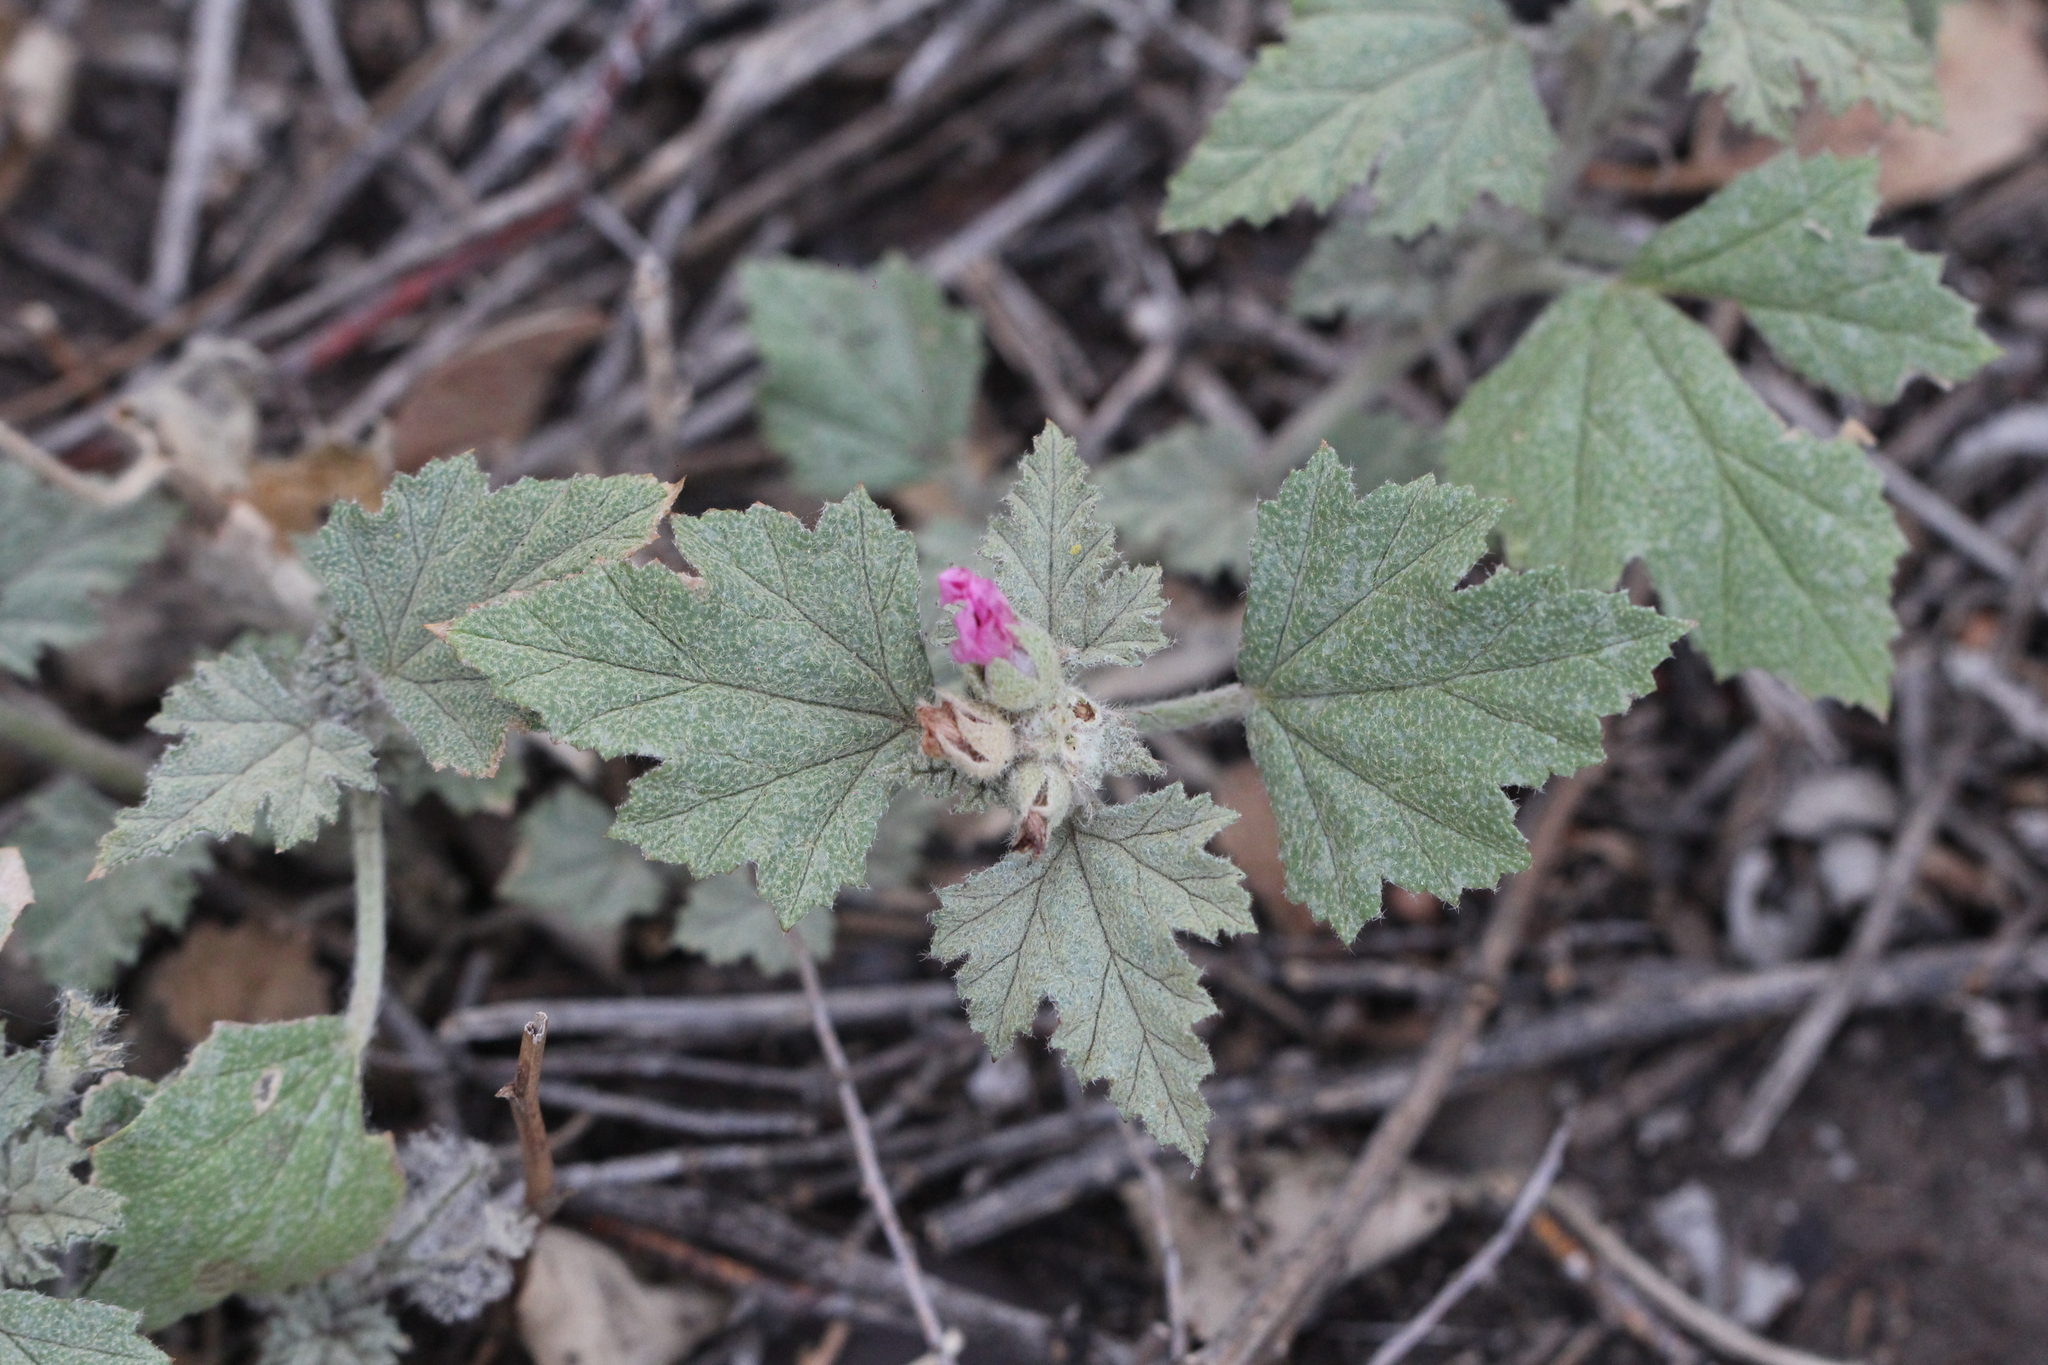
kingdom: Plantae
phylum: Tracheophyta
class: Magnoliopsida
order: Malvales
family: Malvaceae
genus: Sphaeralcea
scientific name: Sphaeralcea mendocina
